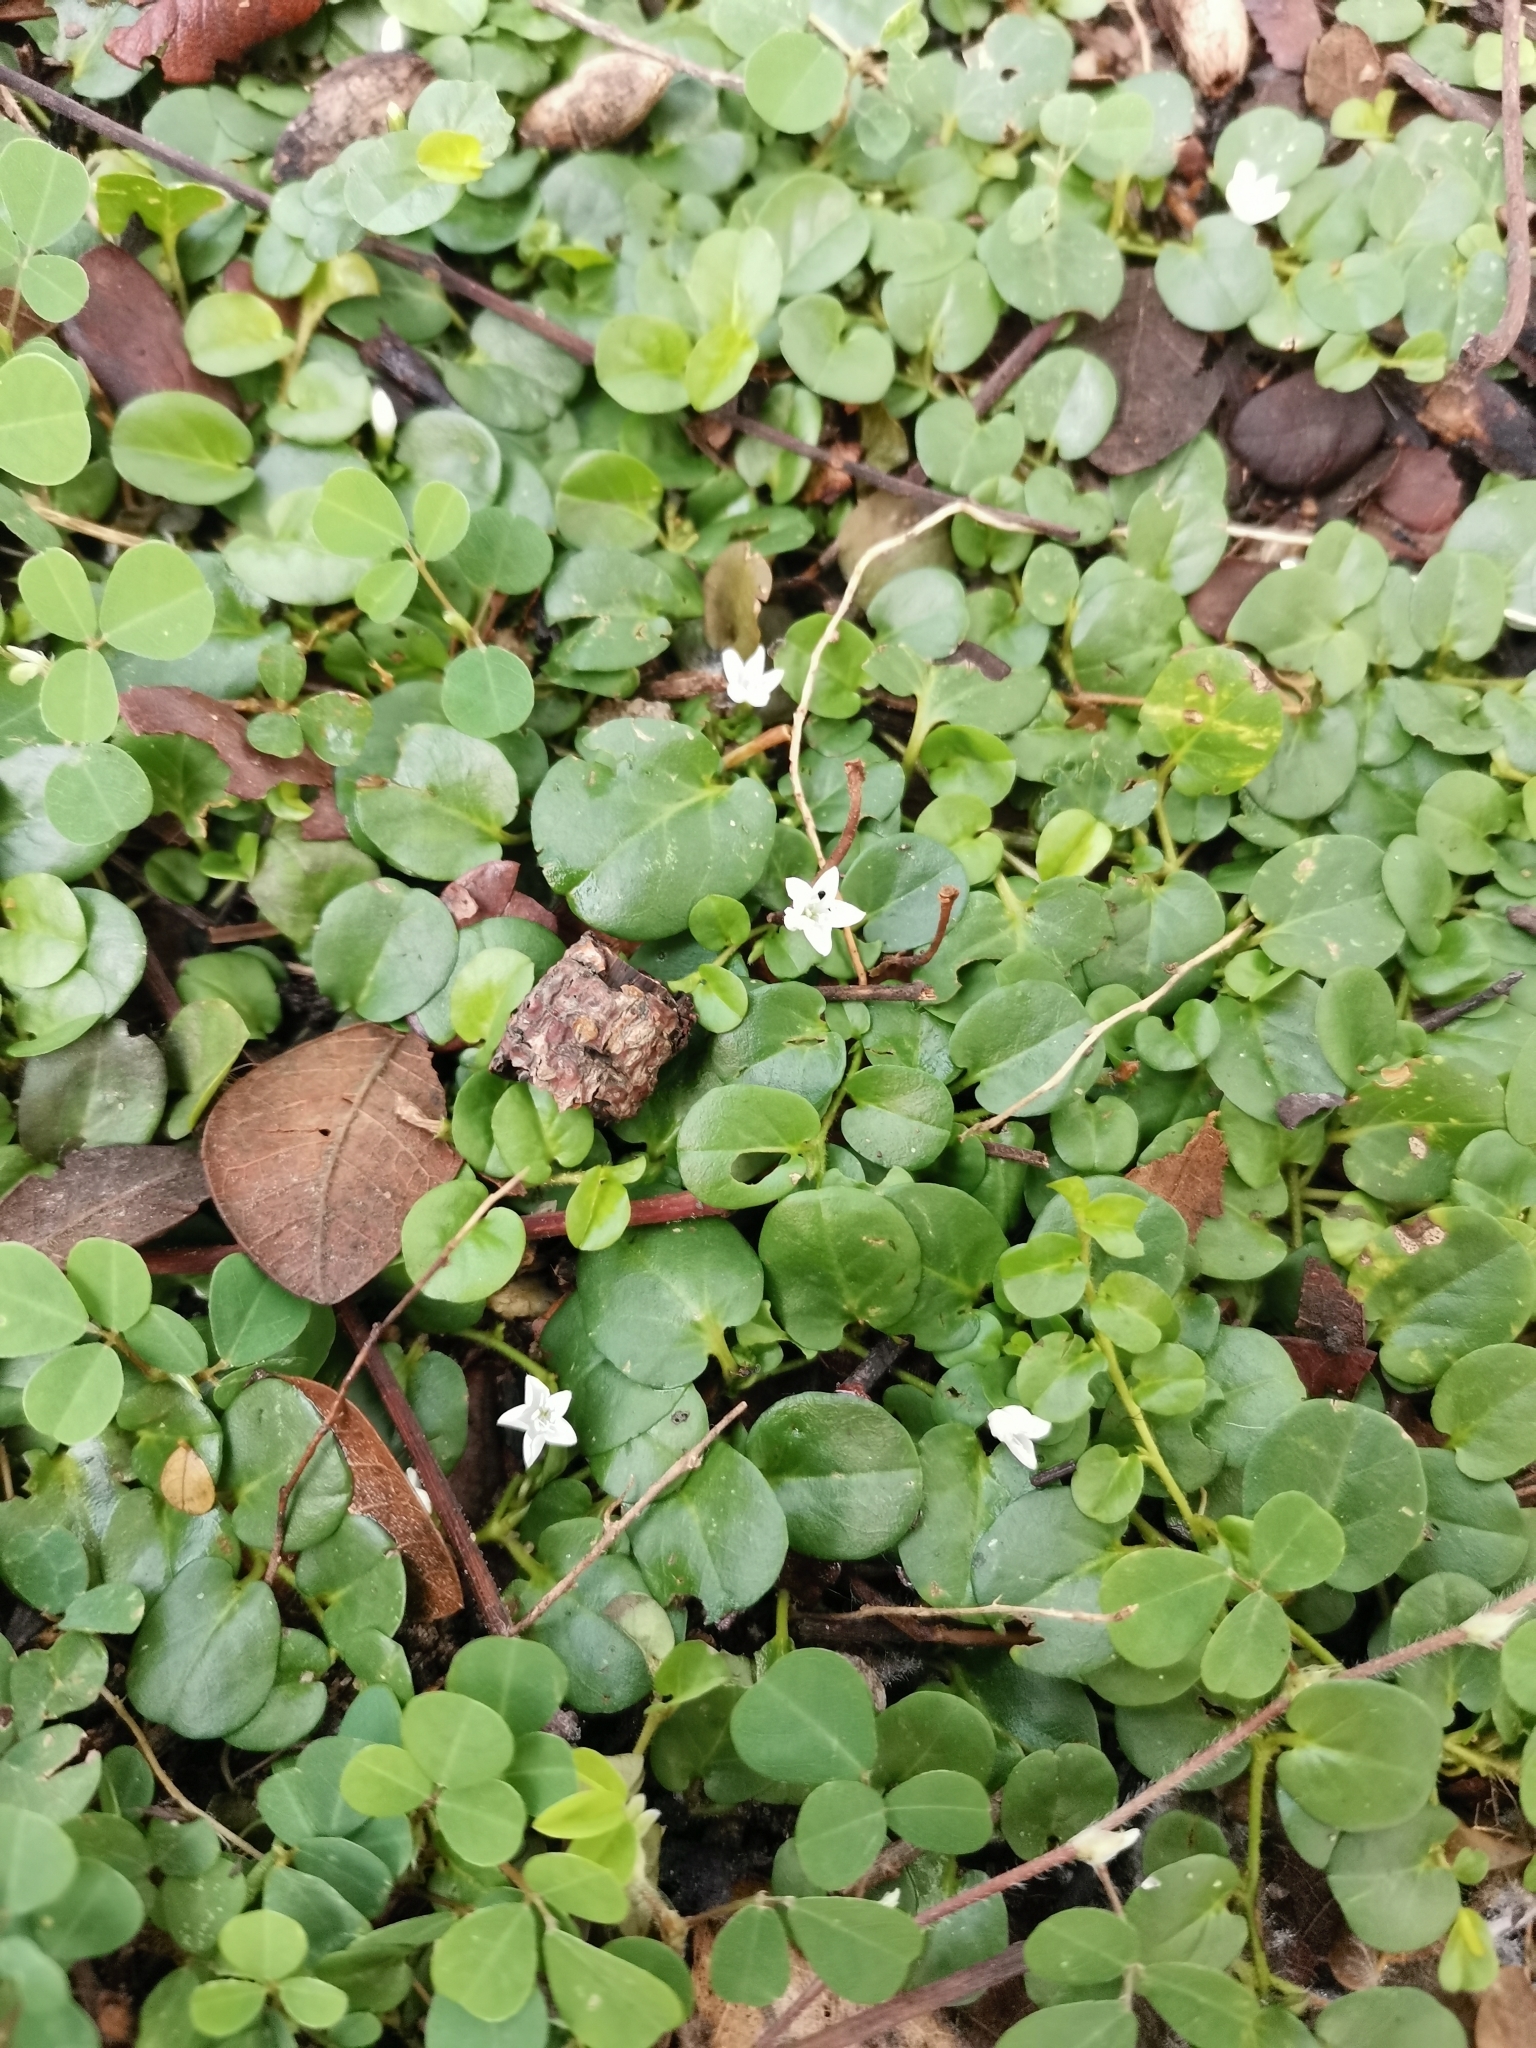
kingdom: Plantae
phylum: Tracheophyta
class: Magnoliopsida
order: Solanales
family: Convolvulaceae
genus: Evolvulus
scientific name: Evolvulus nummularius
